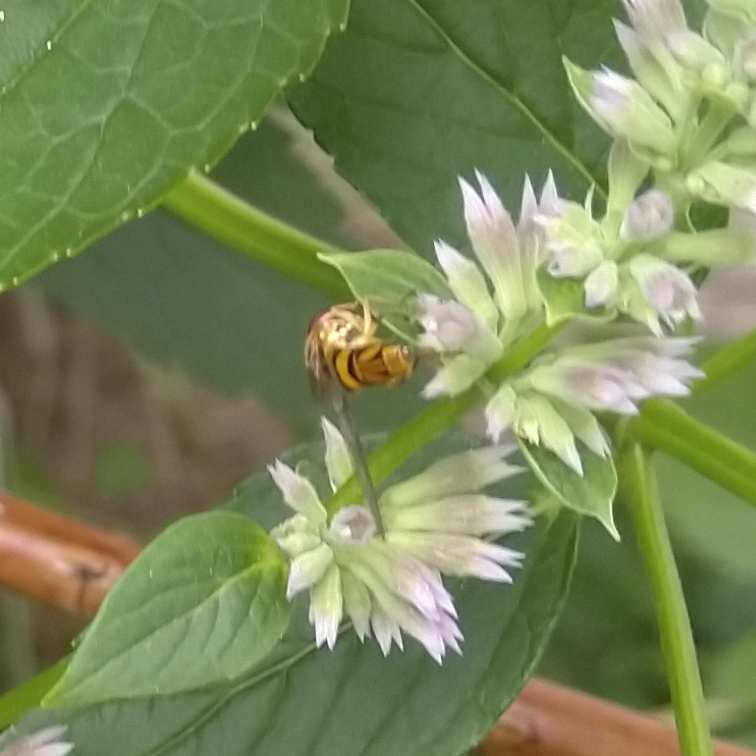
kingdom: Animalia
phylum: Arthropoda
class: Insecta
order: Diptera
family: Syrphidae
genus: Allograpta
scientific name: Allograpta obliqua
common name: Common oblique syrphid
